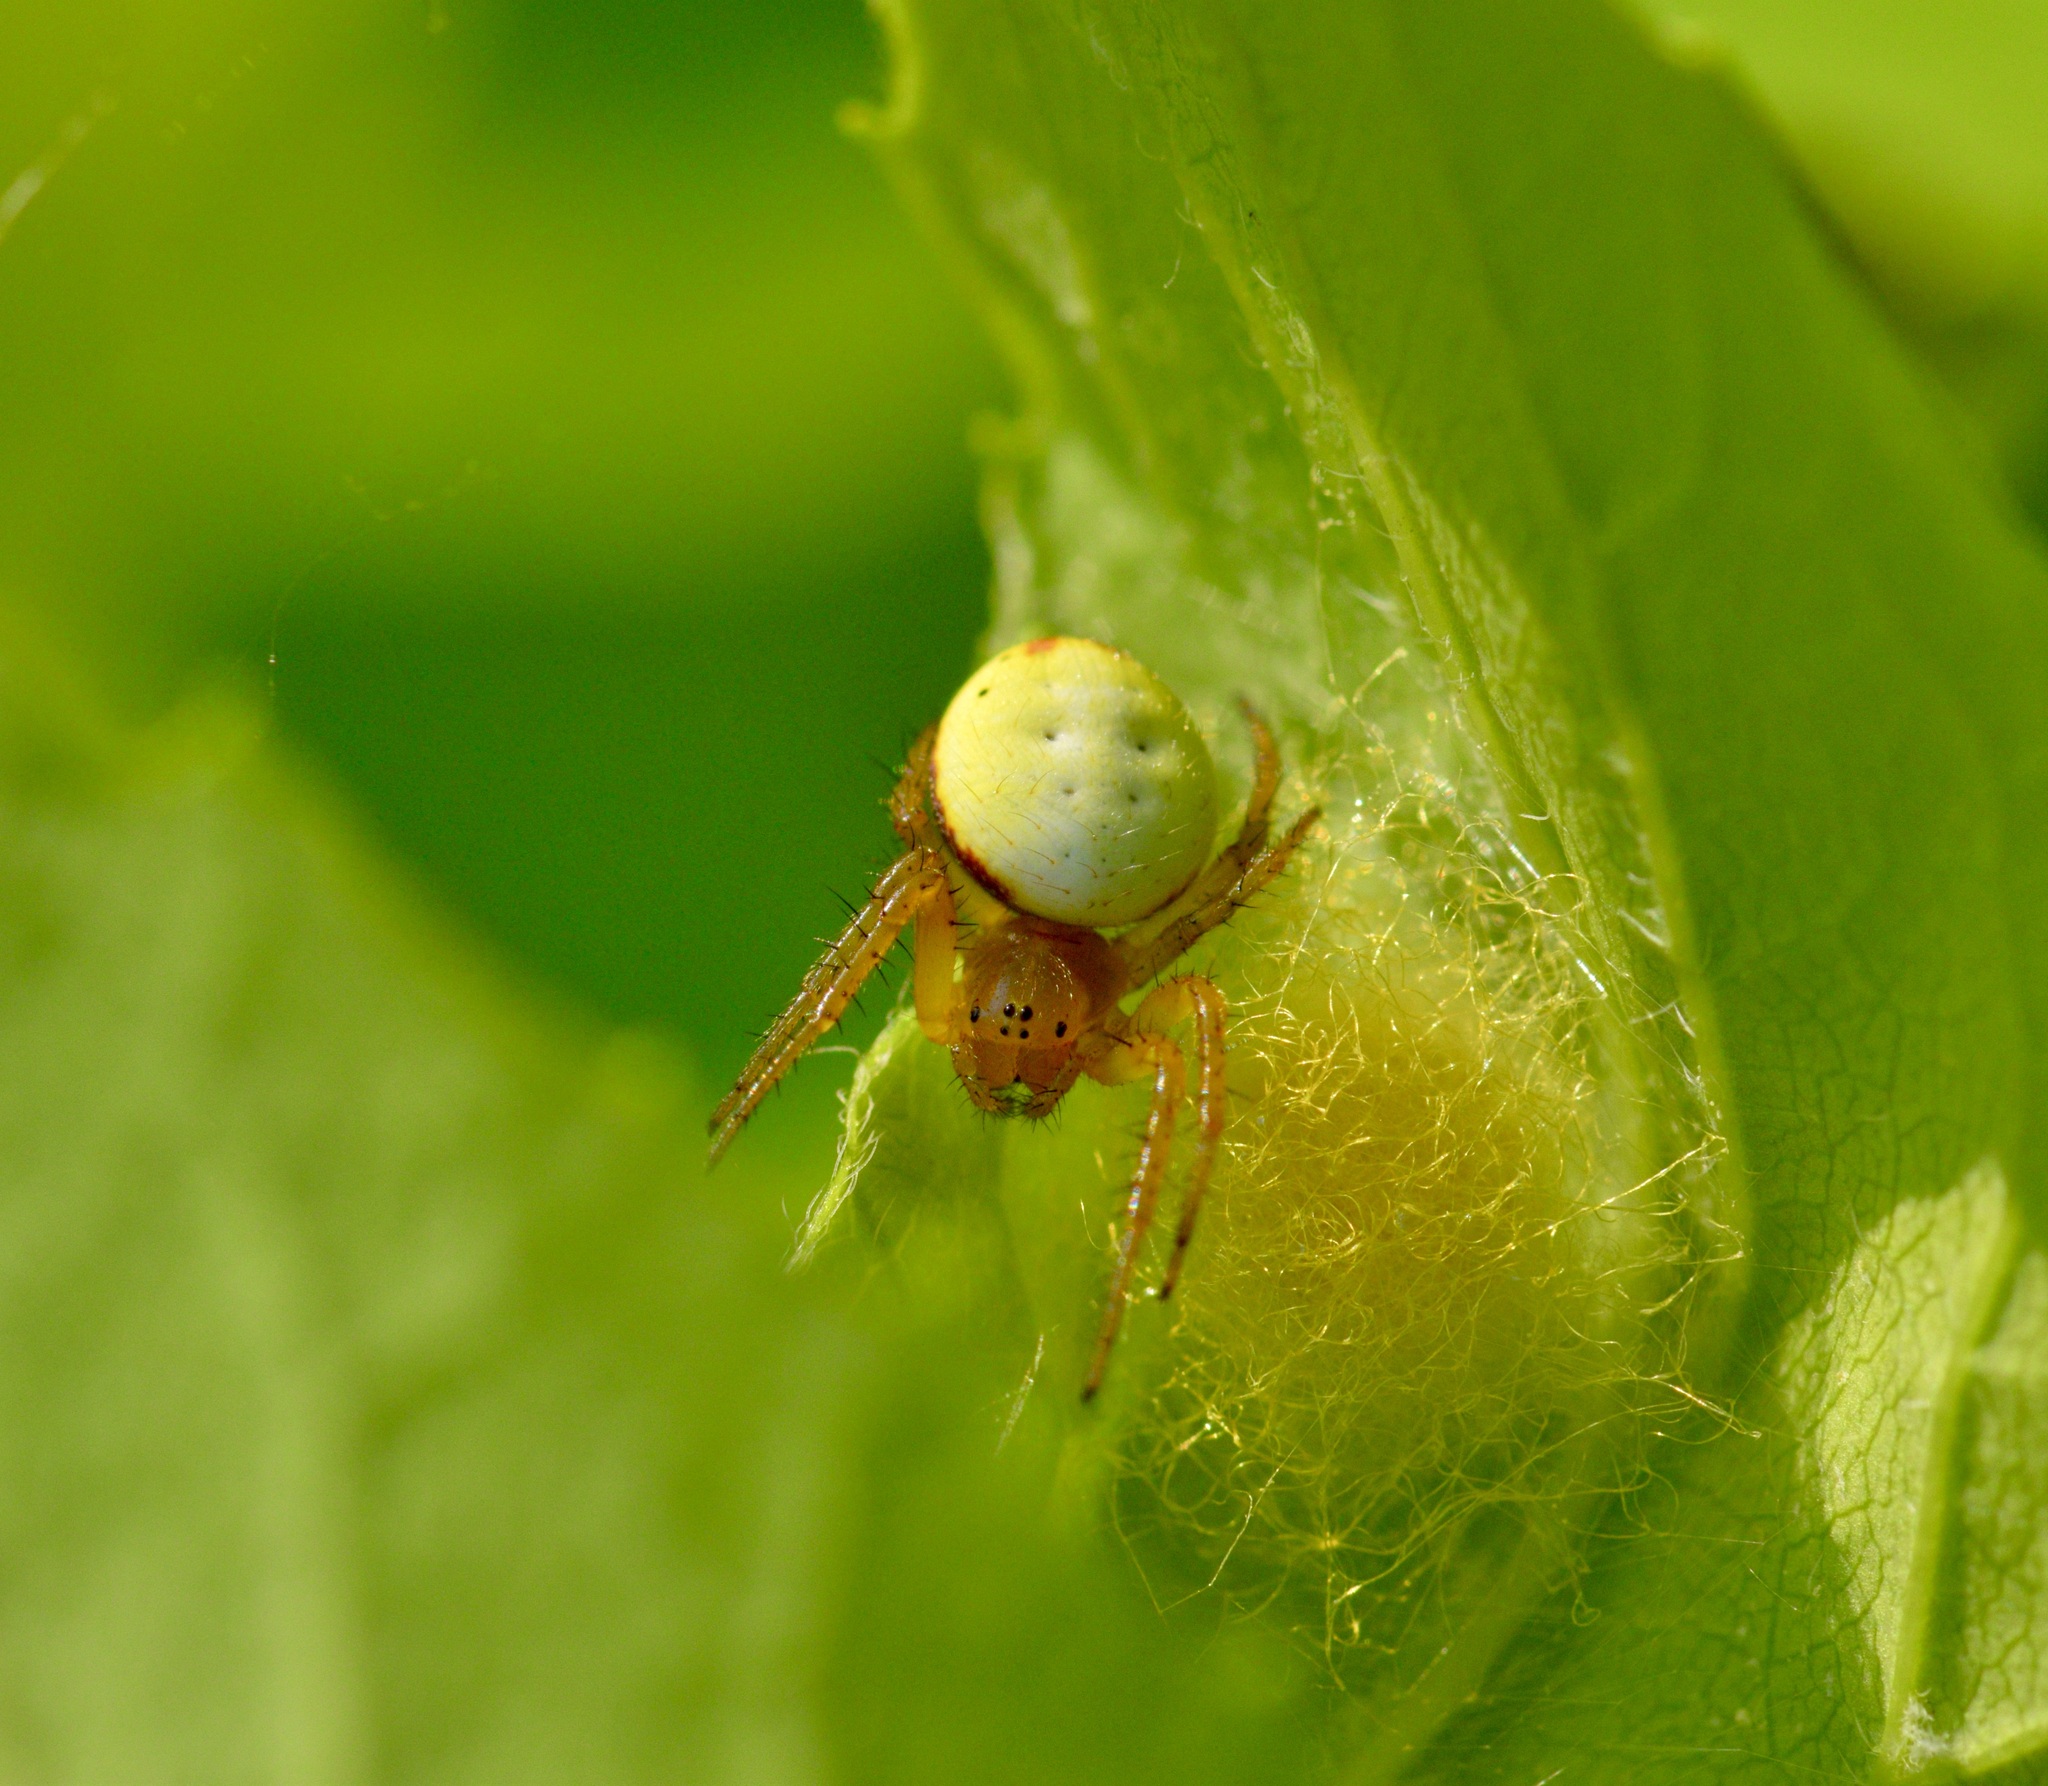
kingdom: Animalia
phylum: Arthropoda
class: Arachnida
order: Araneae
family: Araneidae
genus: Araniella
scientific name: Araniella displicata
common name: Sixspotted orb weaver
